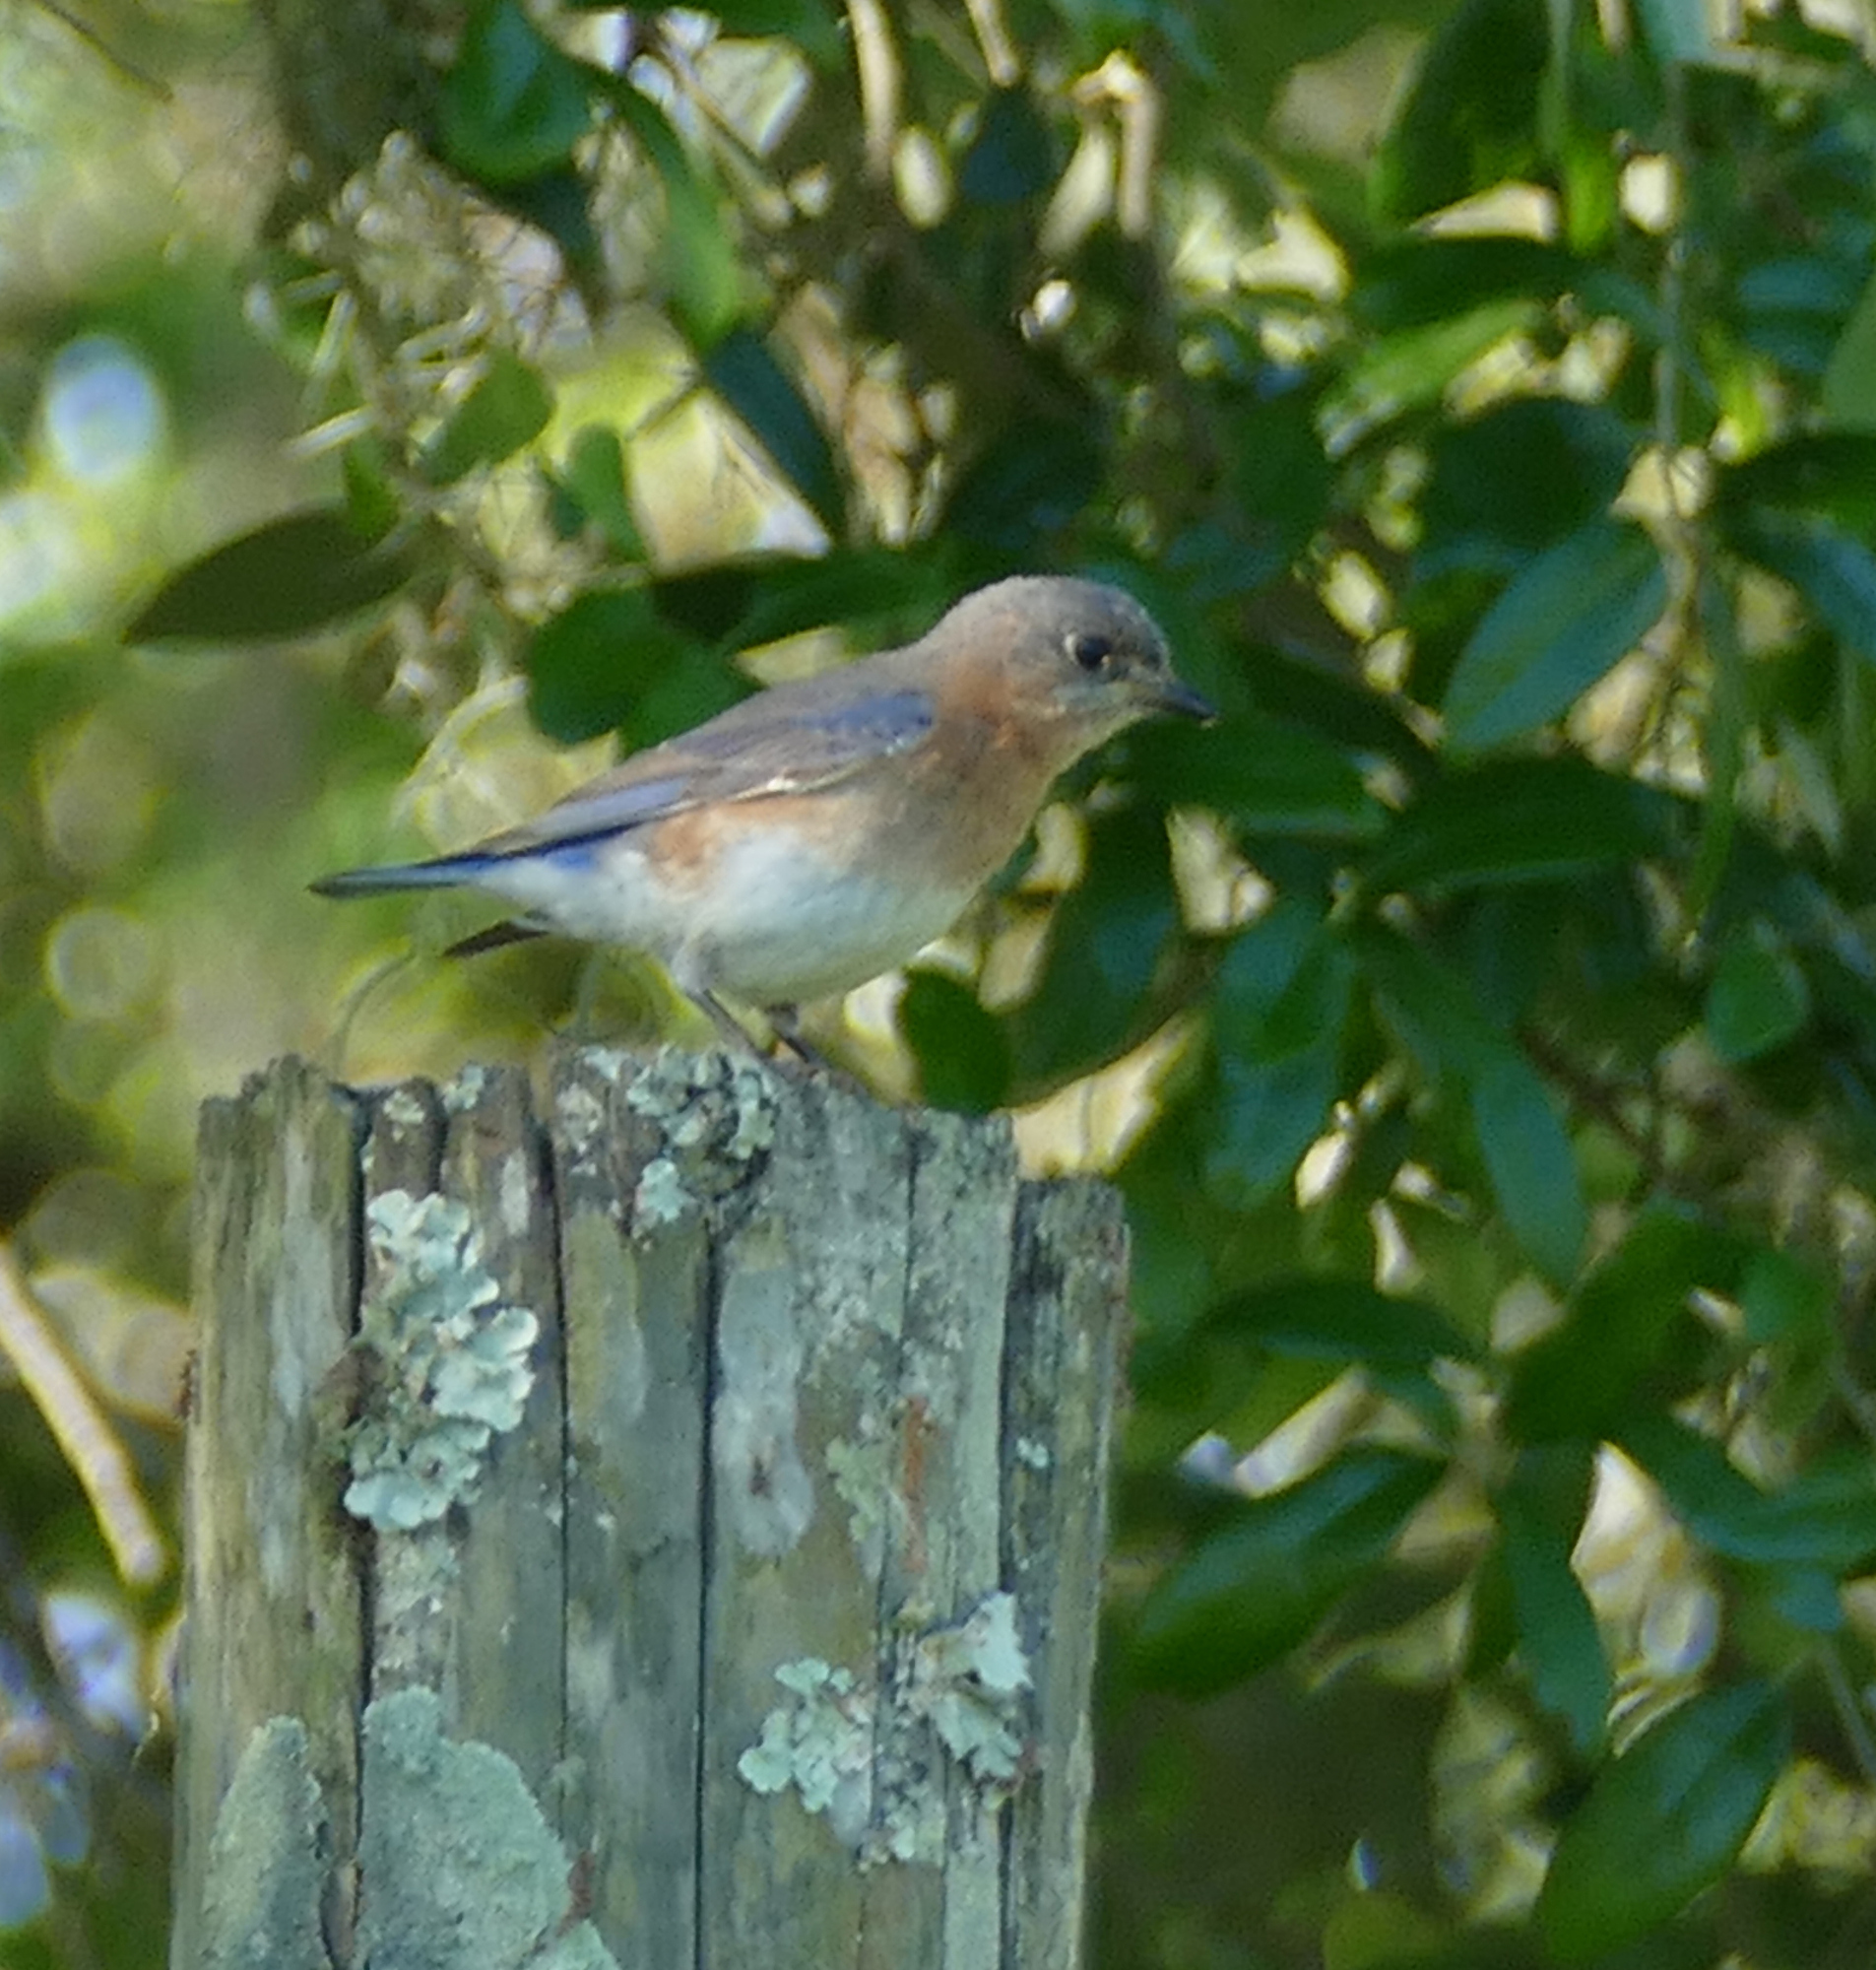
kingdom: Animalia
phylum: Chordata
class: Aves
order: Passeriformes
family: Turdidae
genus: Sialia
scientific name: Sialia sialis
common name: Eastern bluebird
